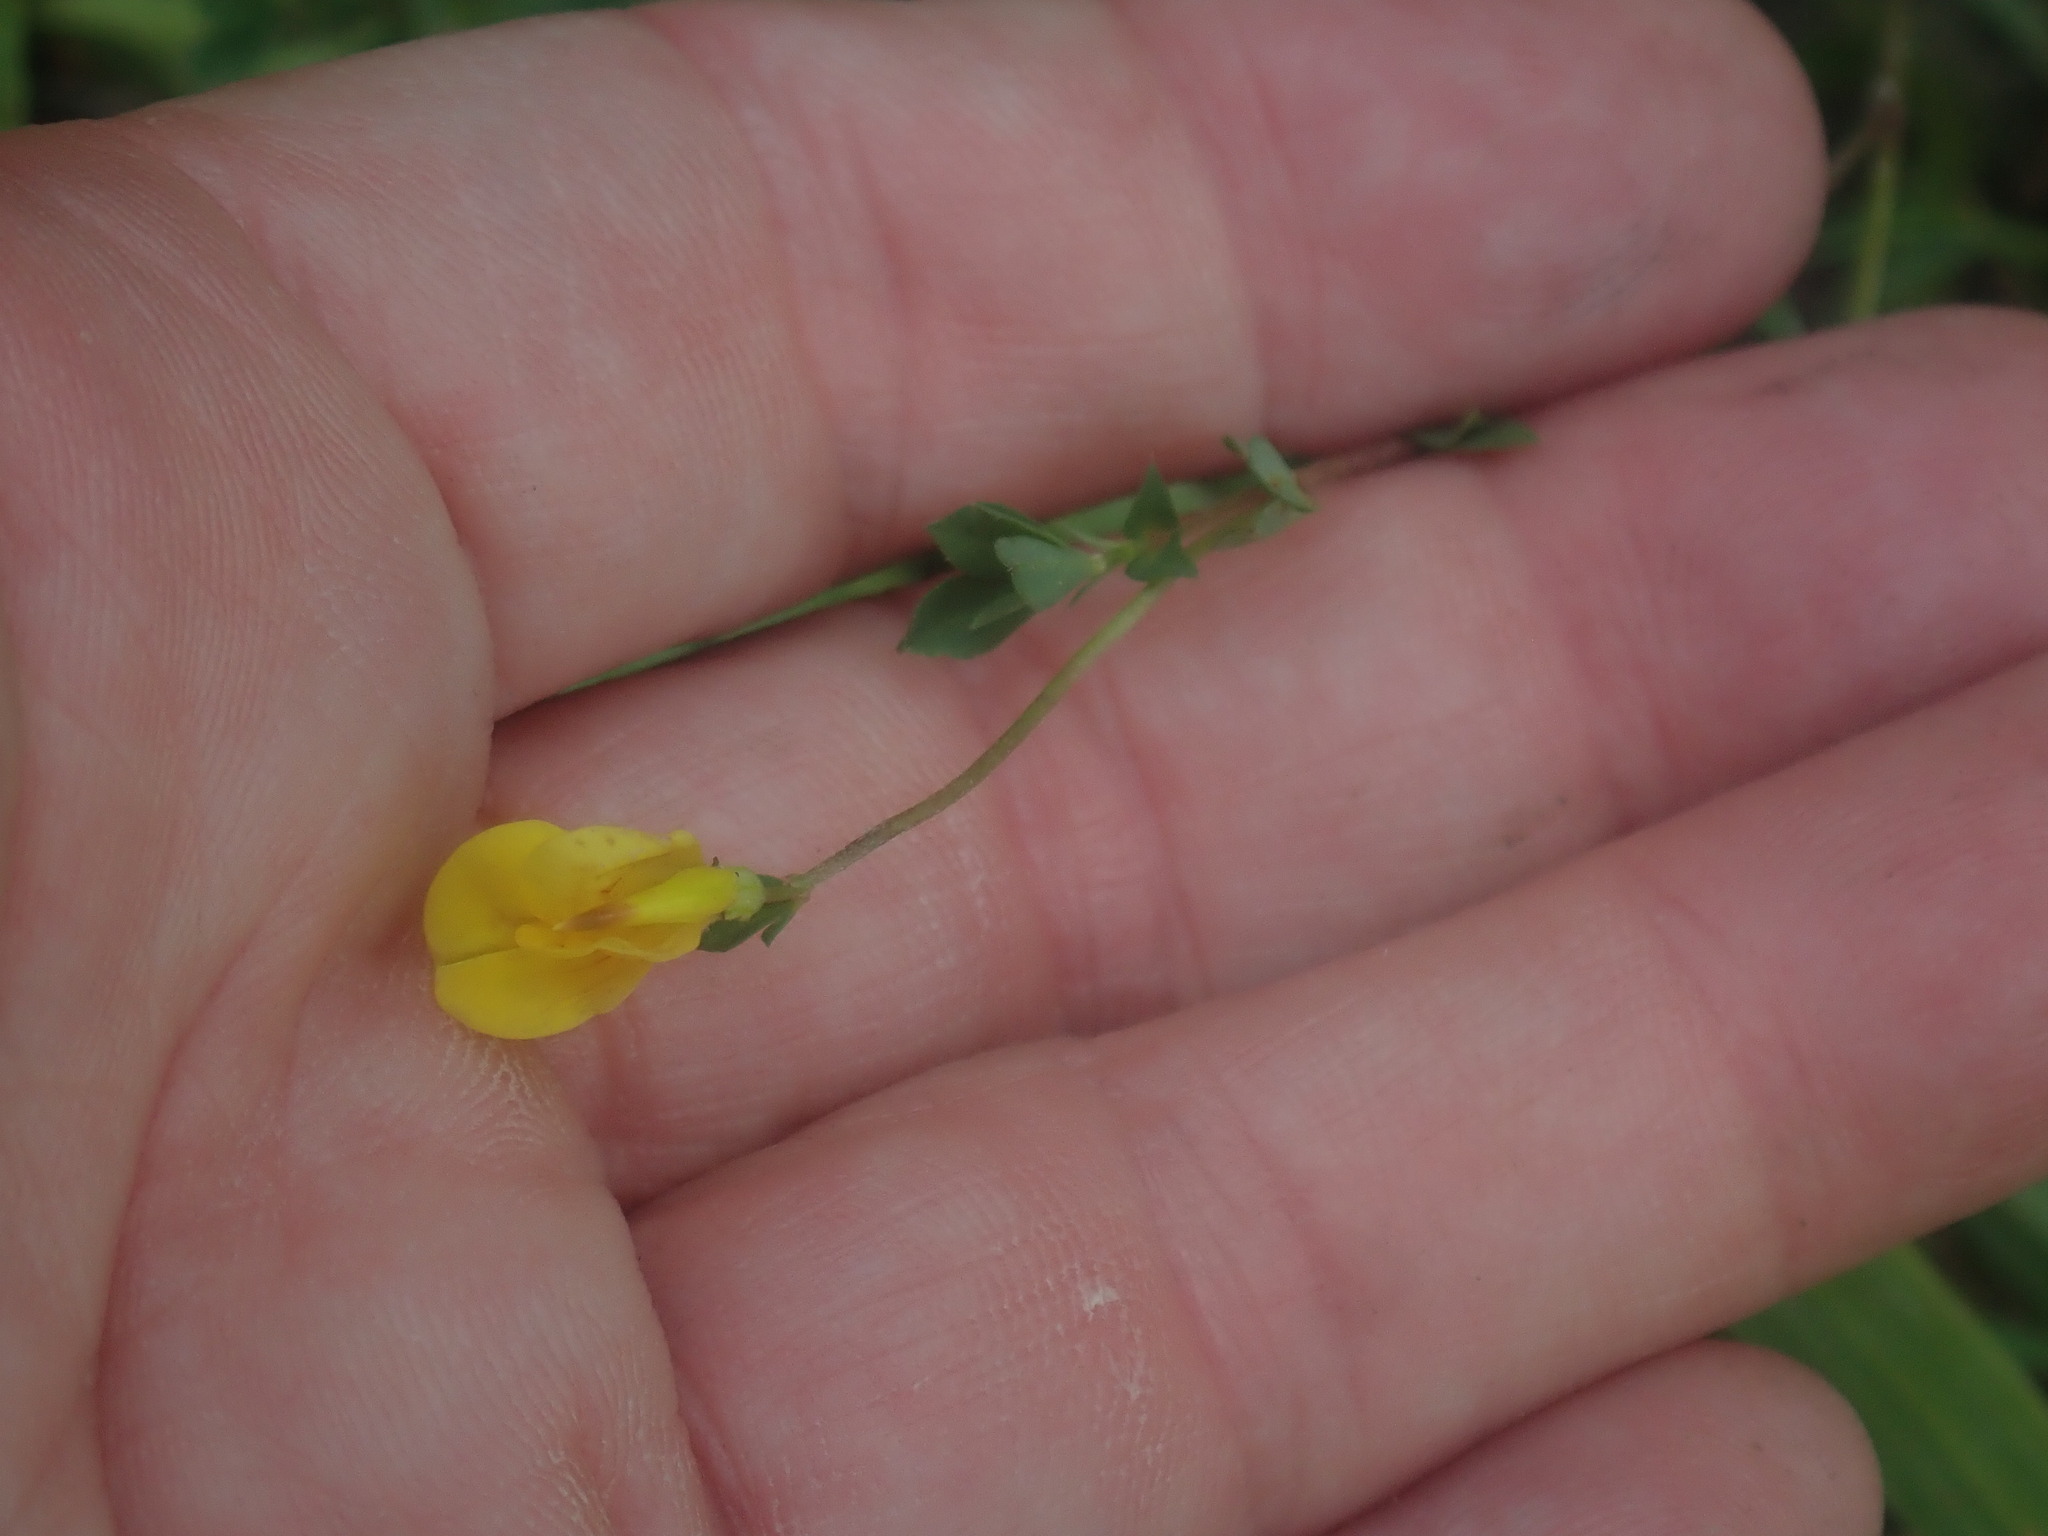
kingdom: Plantae
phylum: Tracheophyta
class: Magnoliopsida
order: Fabales
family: Fabaceae
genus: Lotus
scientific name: Lotus corniculatus
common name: Common bird's-foot-trefoil
